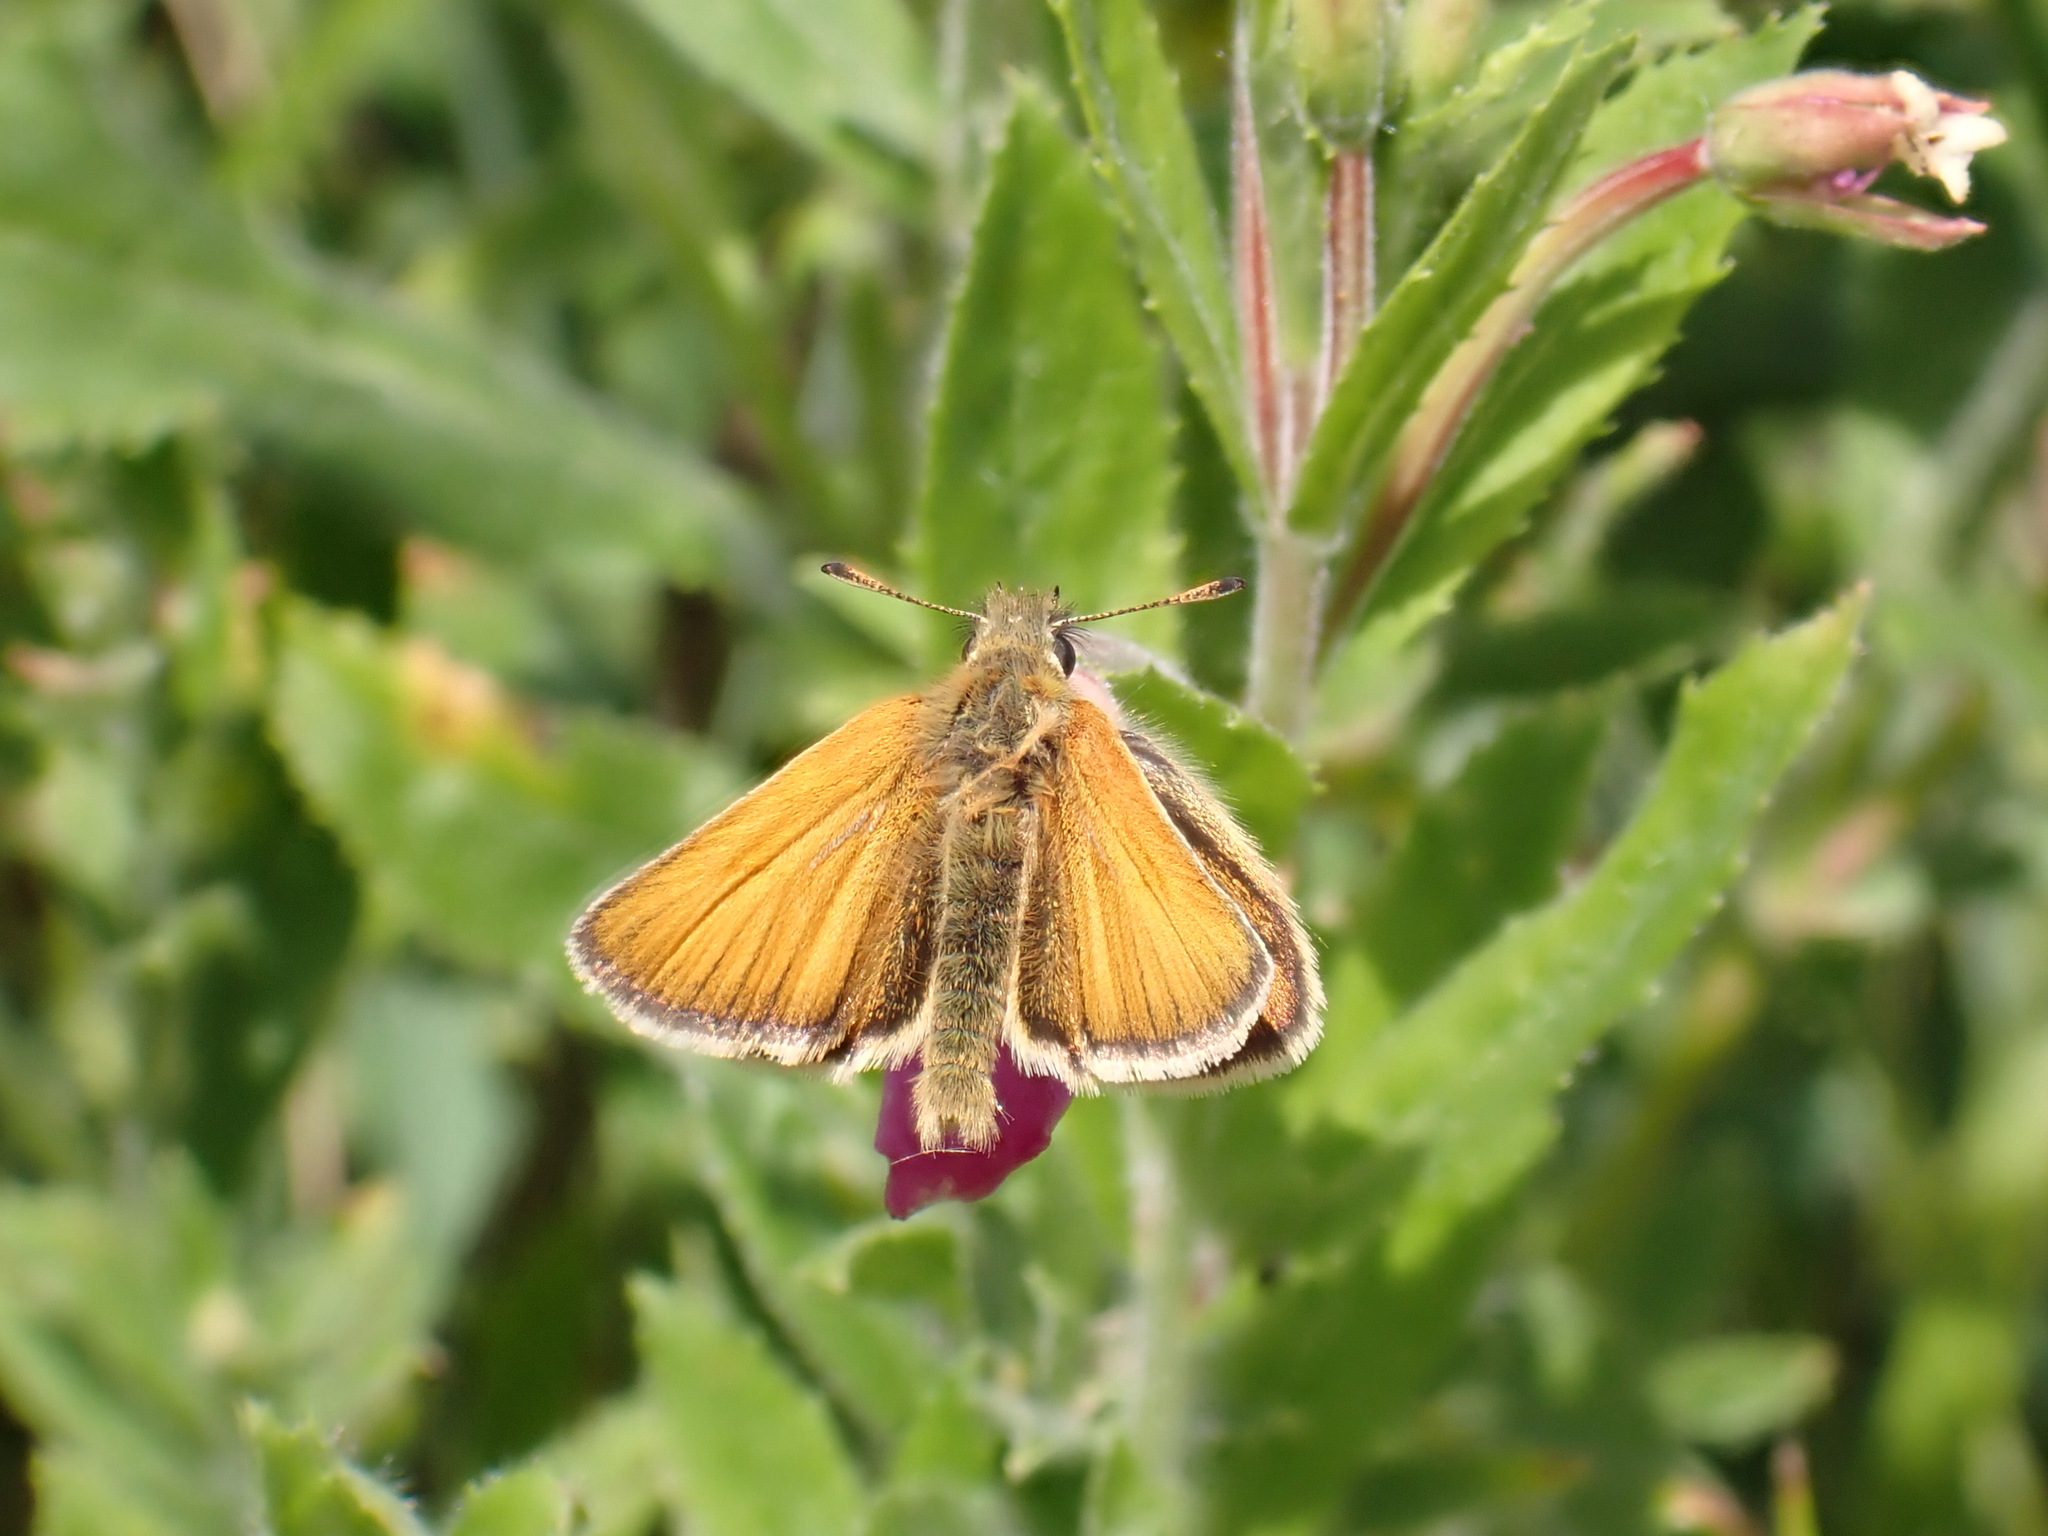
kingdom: Animalia
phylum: Arthropoda
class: Insecta
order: Lepidoptera
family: Hesperiidae
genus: Thymelicus
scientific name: Thymelicus lineola
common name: Essex skipper
